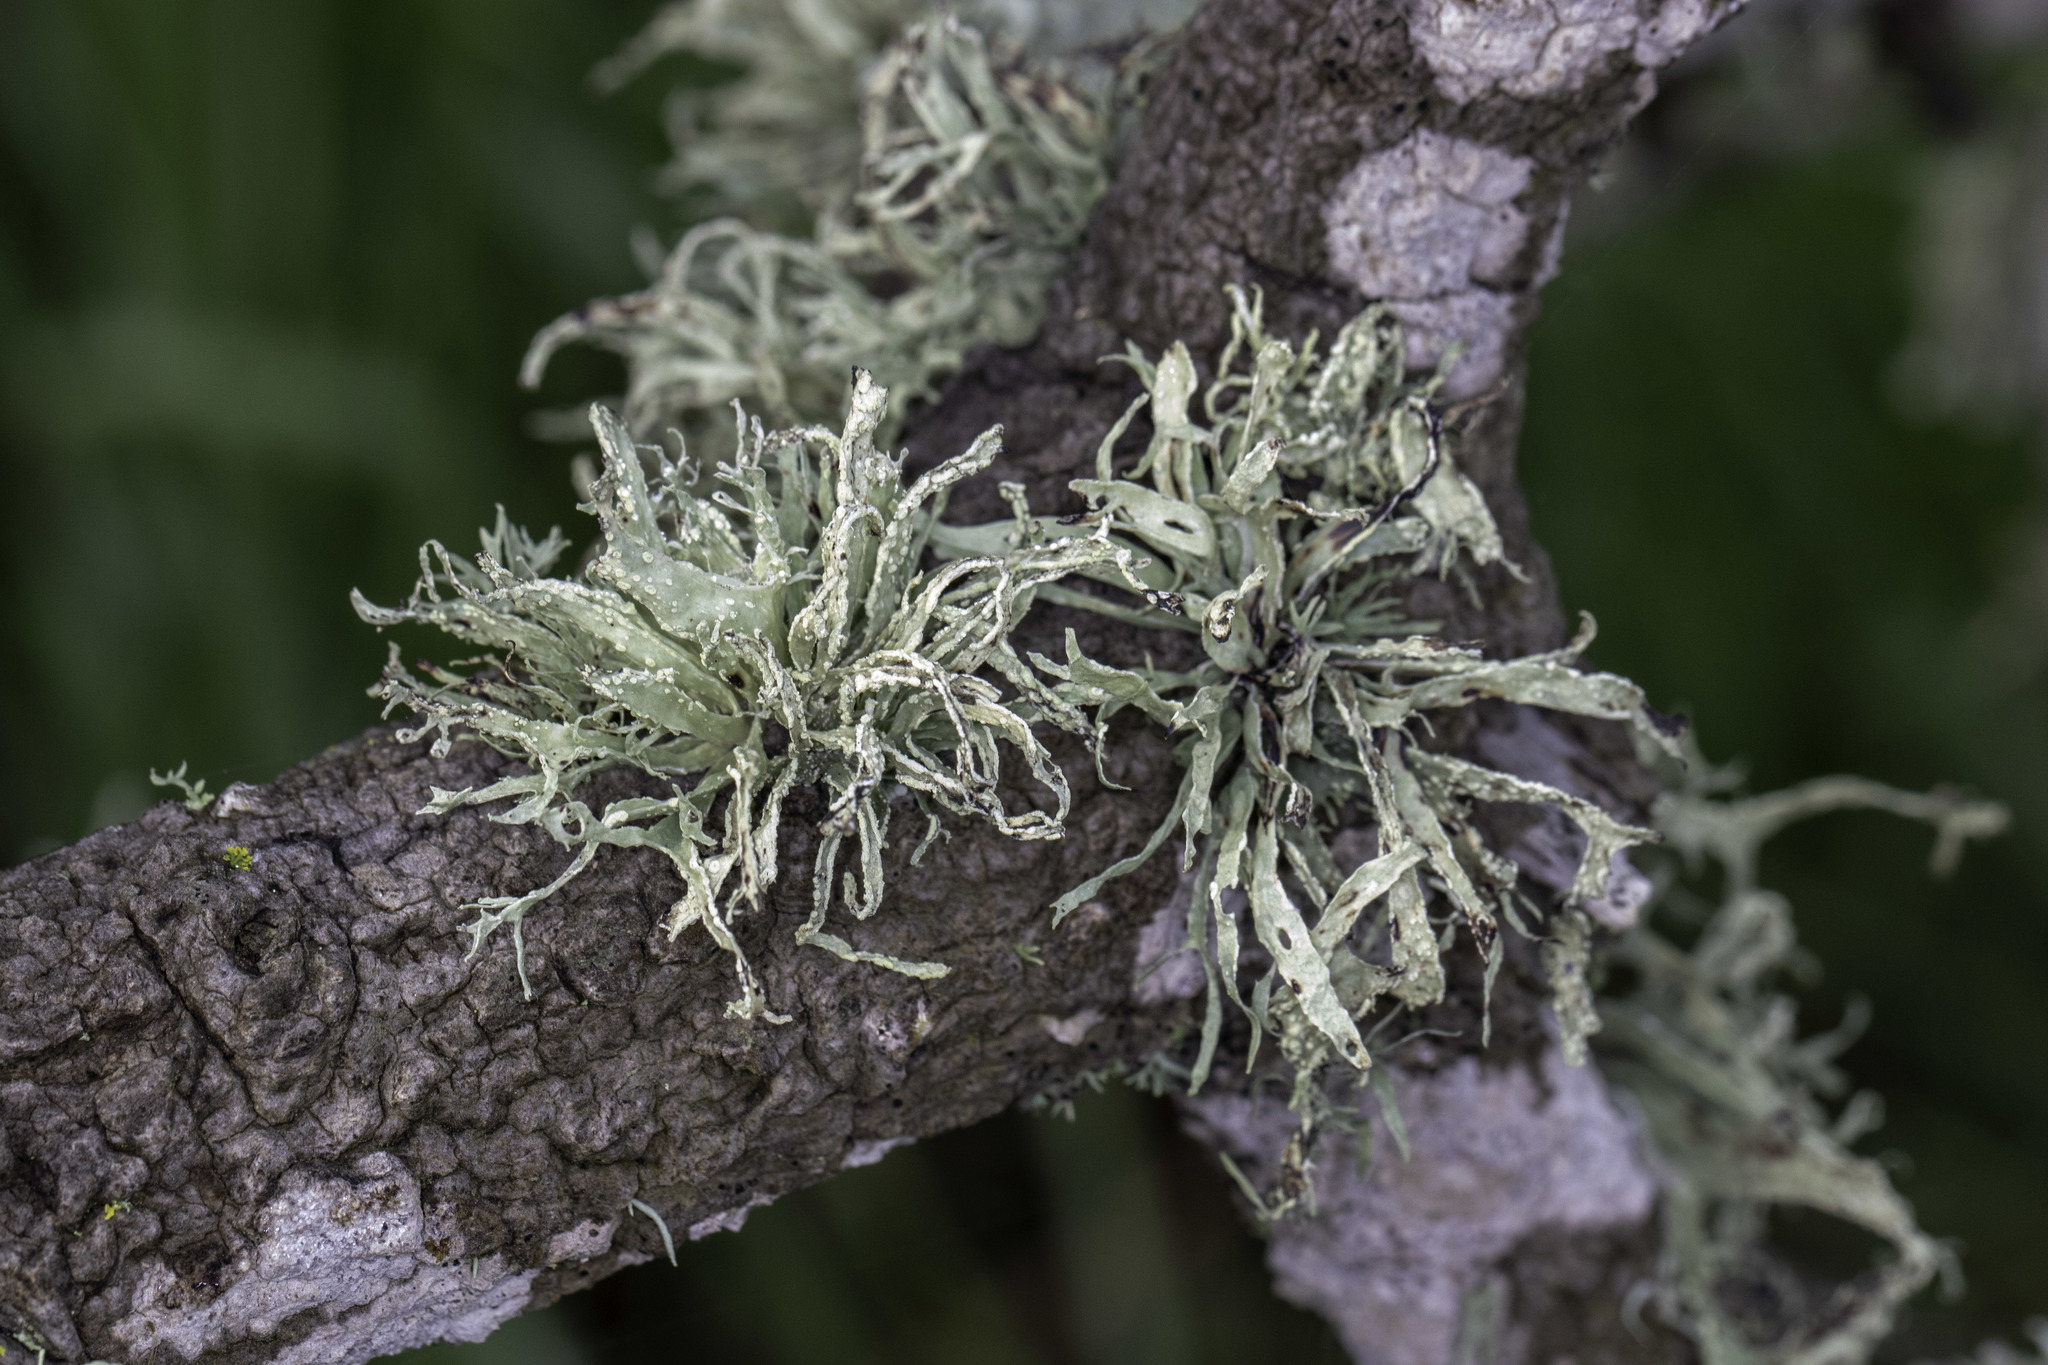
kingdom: Fungi
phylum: Ascomycota
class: Lecanoromycetes
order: Lecanorales
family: Ramalinaceae
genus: Ramalina
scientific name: Ramalina farinacea
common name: Farinose cartilage lichen
